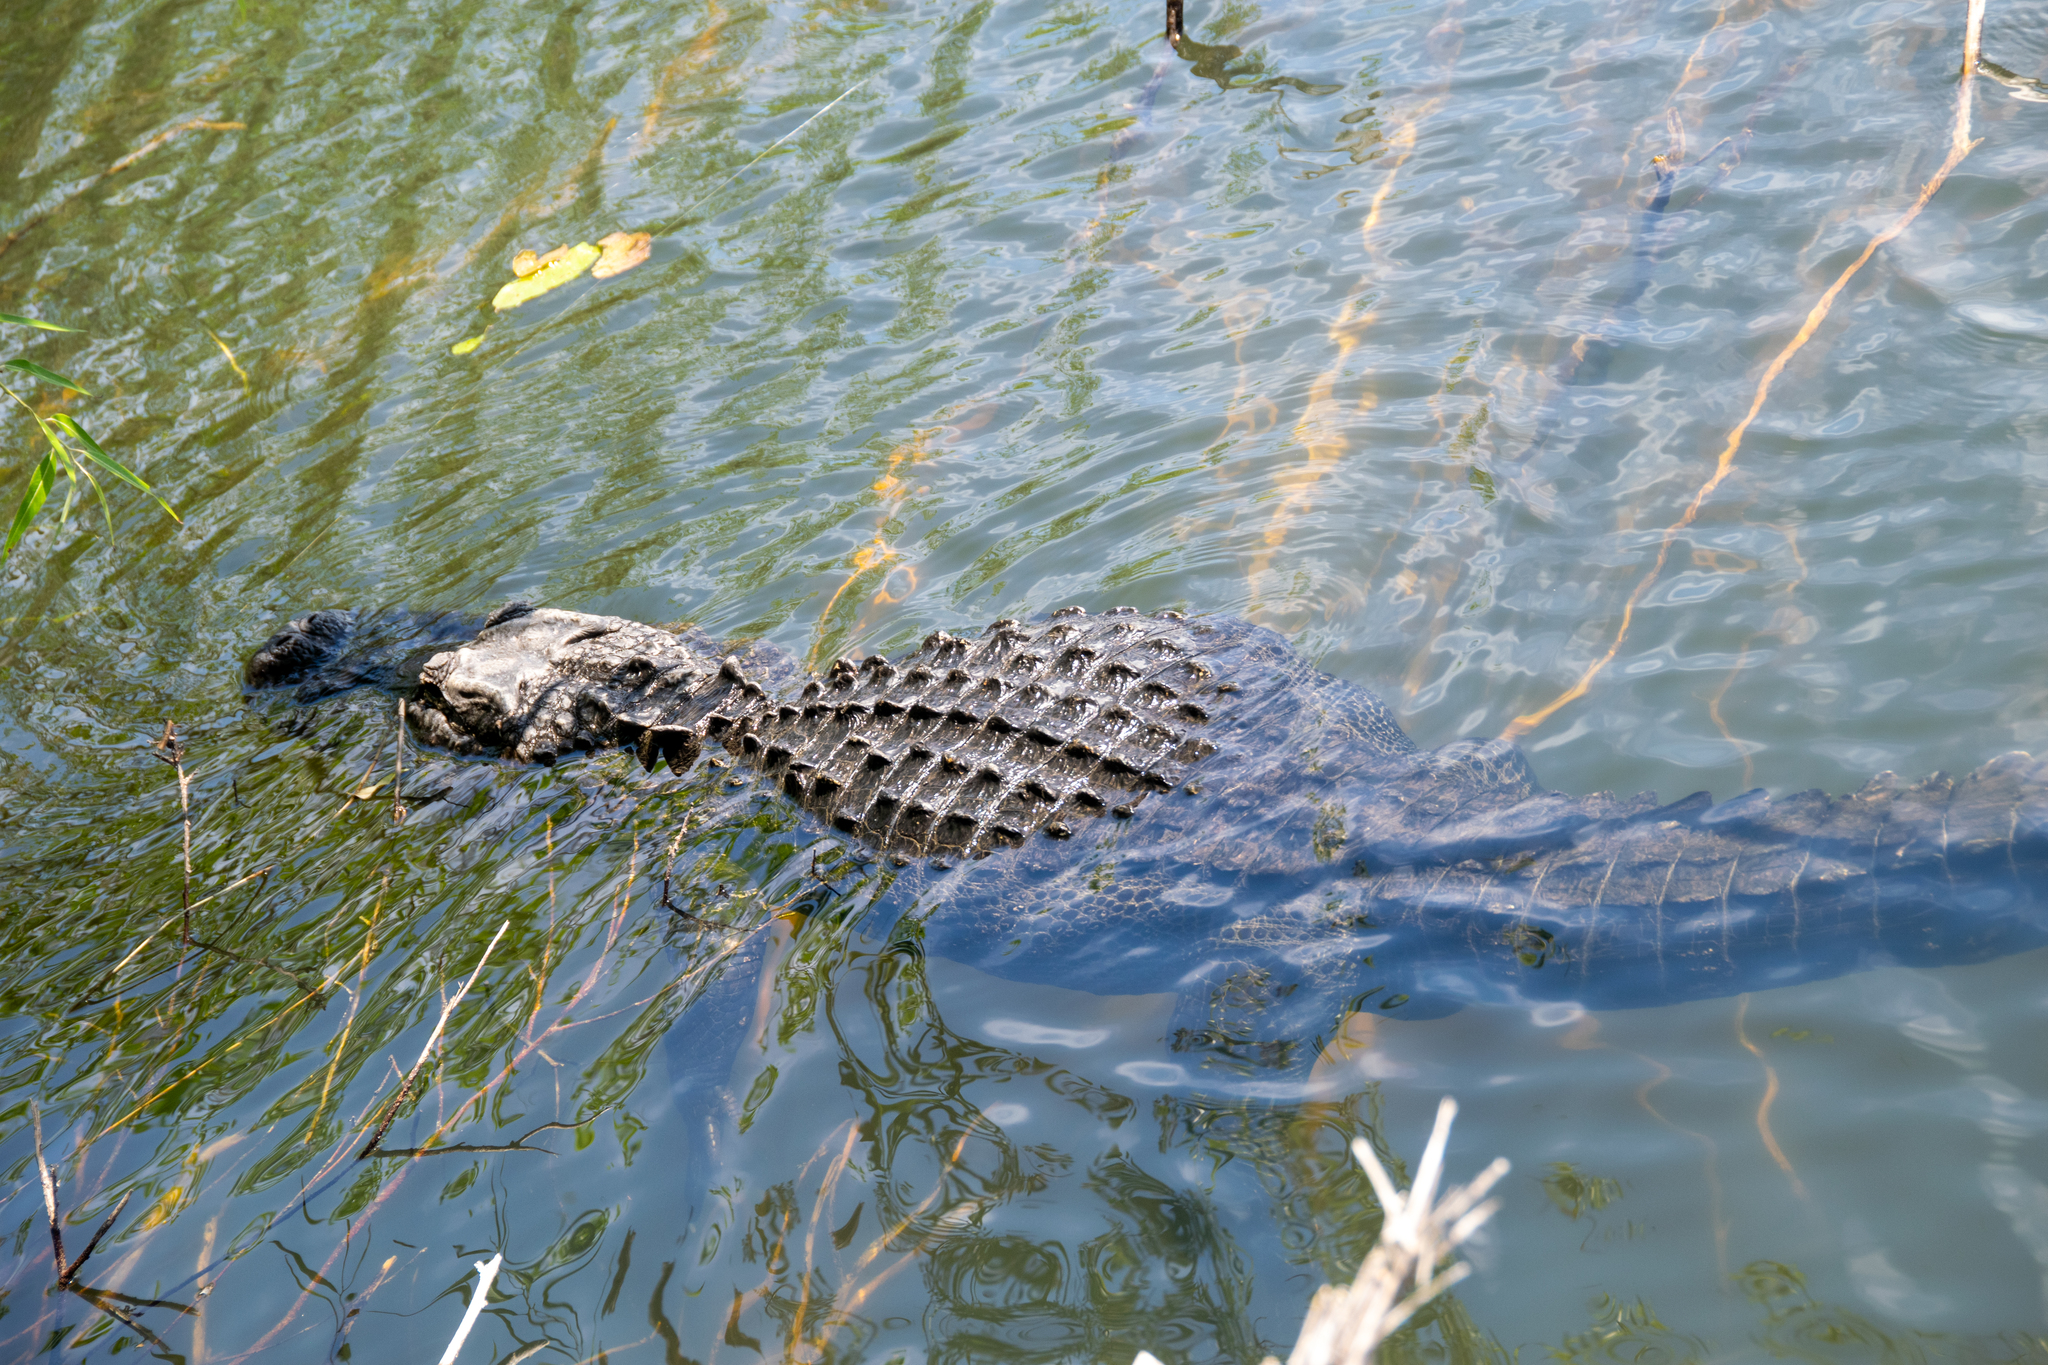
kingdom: Animalia
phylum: Chordata
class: Crocodylia
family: Alligatoridae
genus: Alligator
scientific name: Alligator mississippiensis
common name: American alligator
